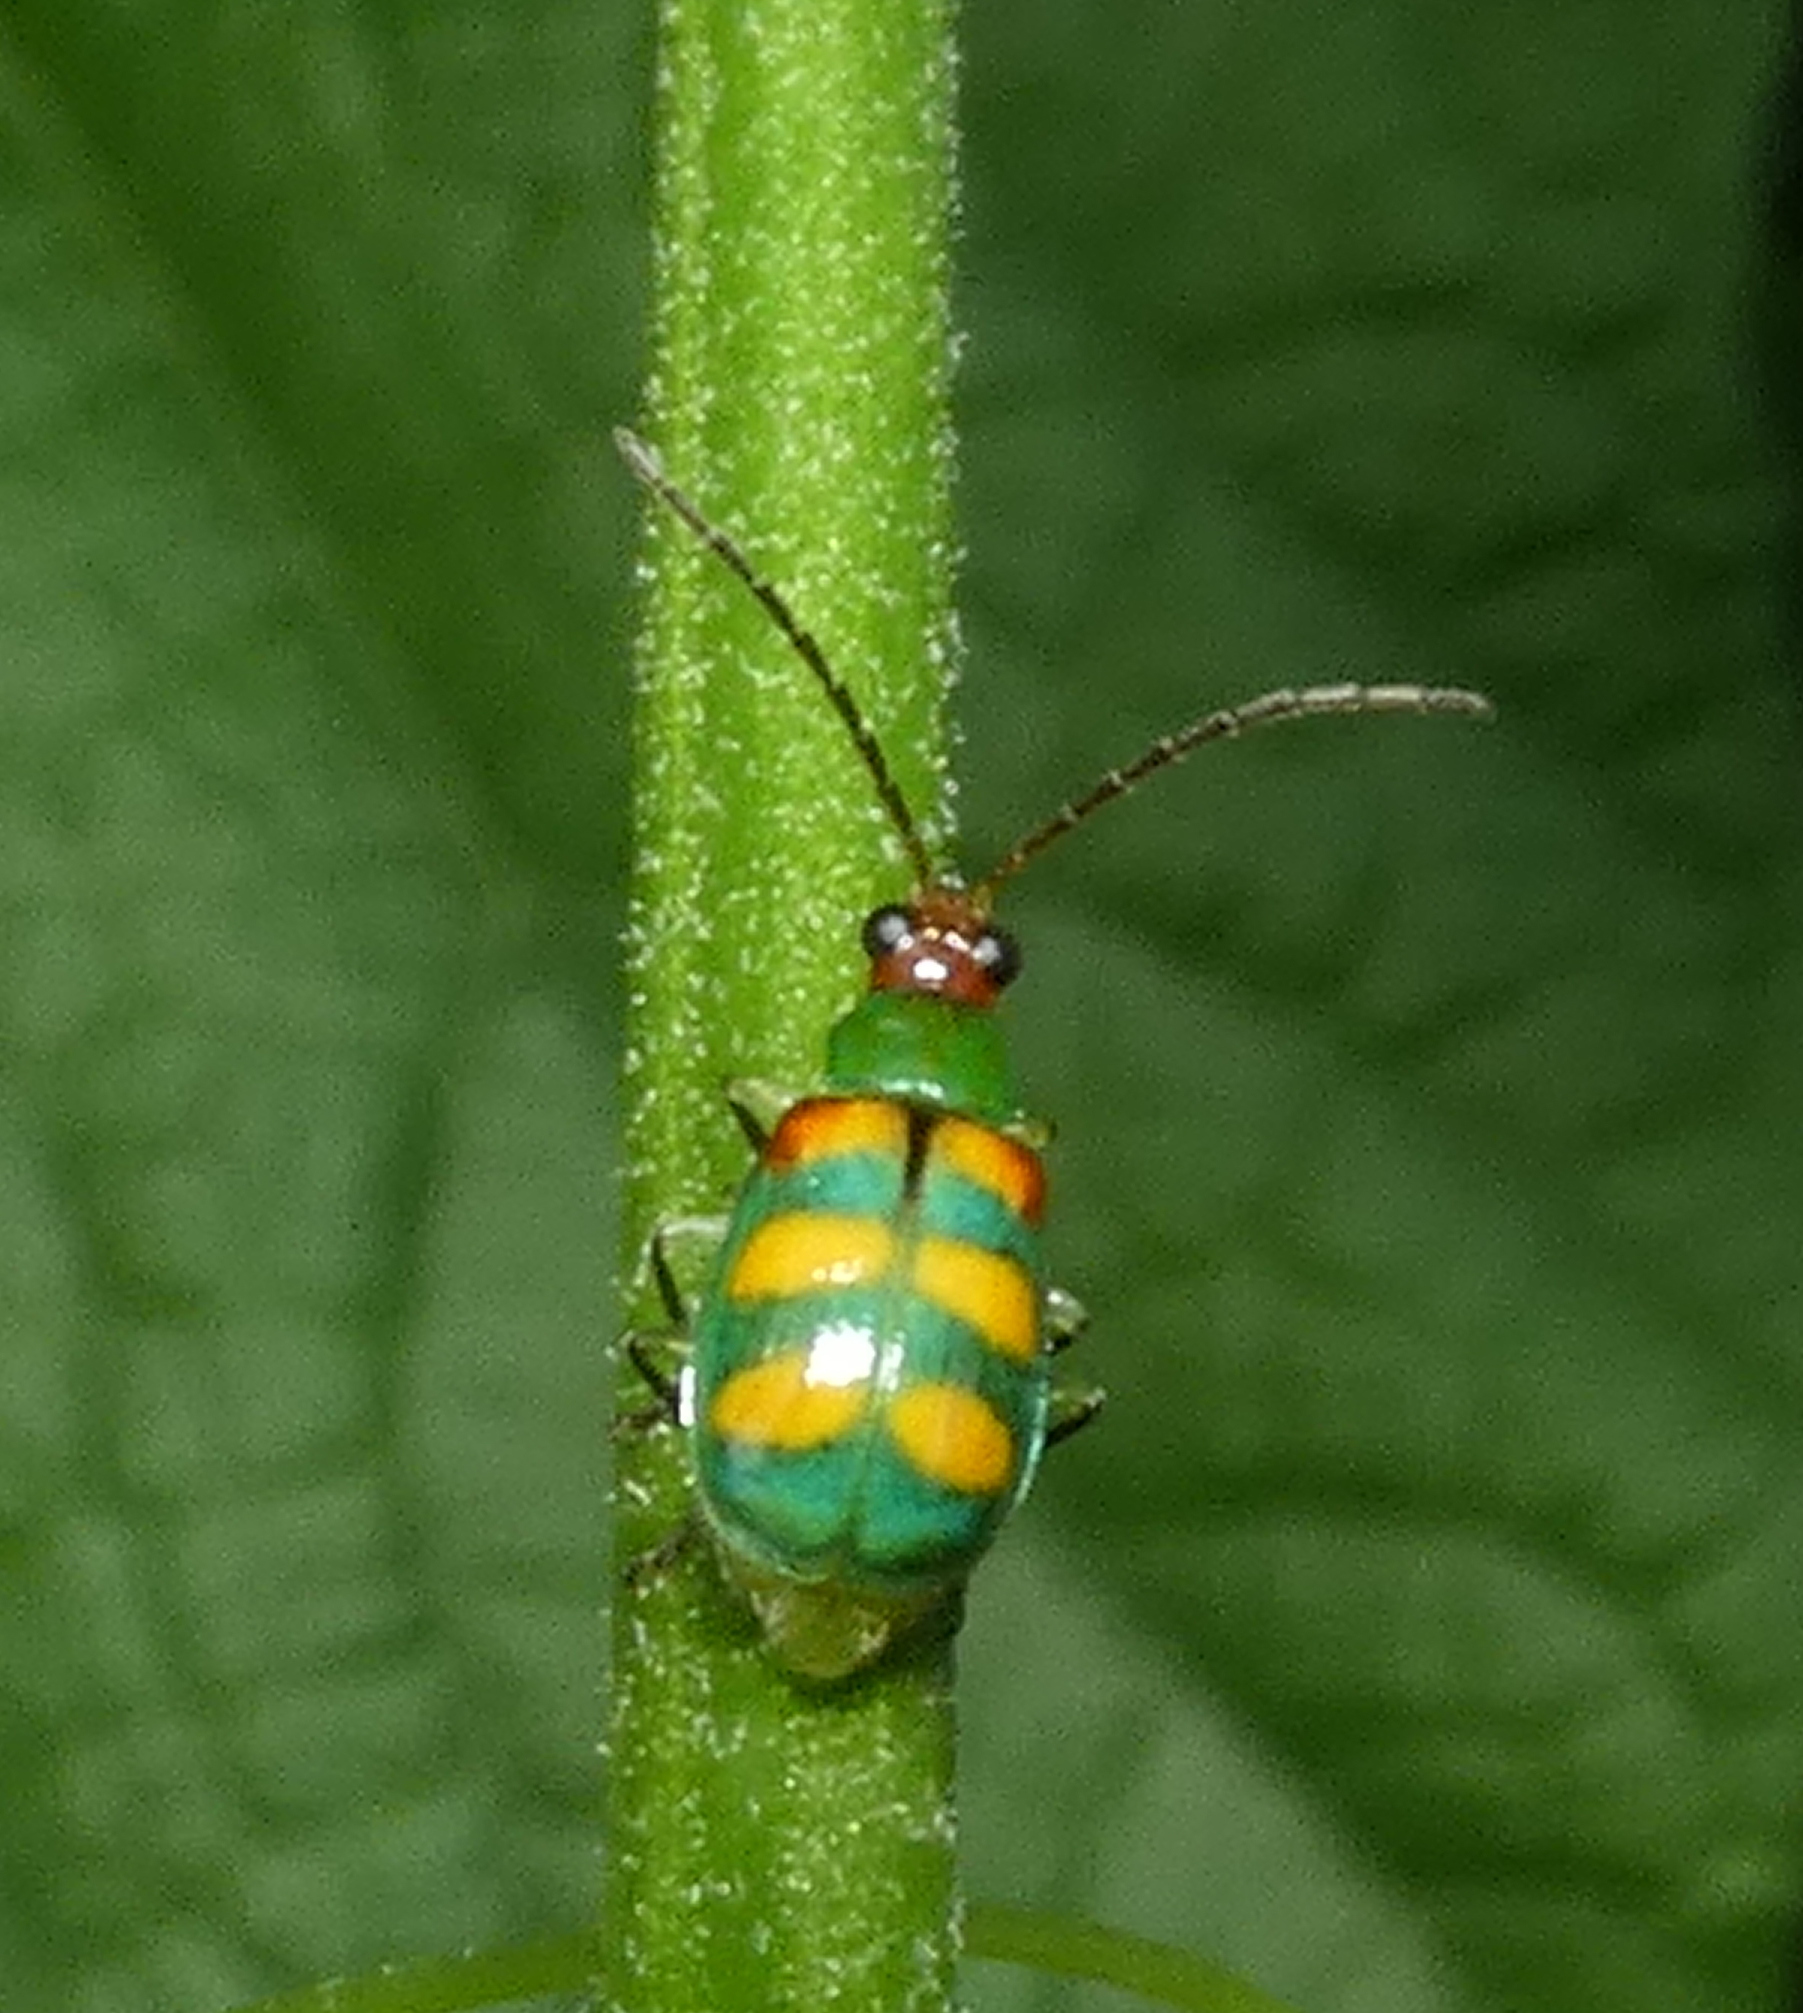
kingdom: Animalia
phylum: Arthropoda
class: Insecta
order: Coleoptera
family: Chrysomelidae
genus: Diabrotica
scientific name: Diabrotica speciosa
